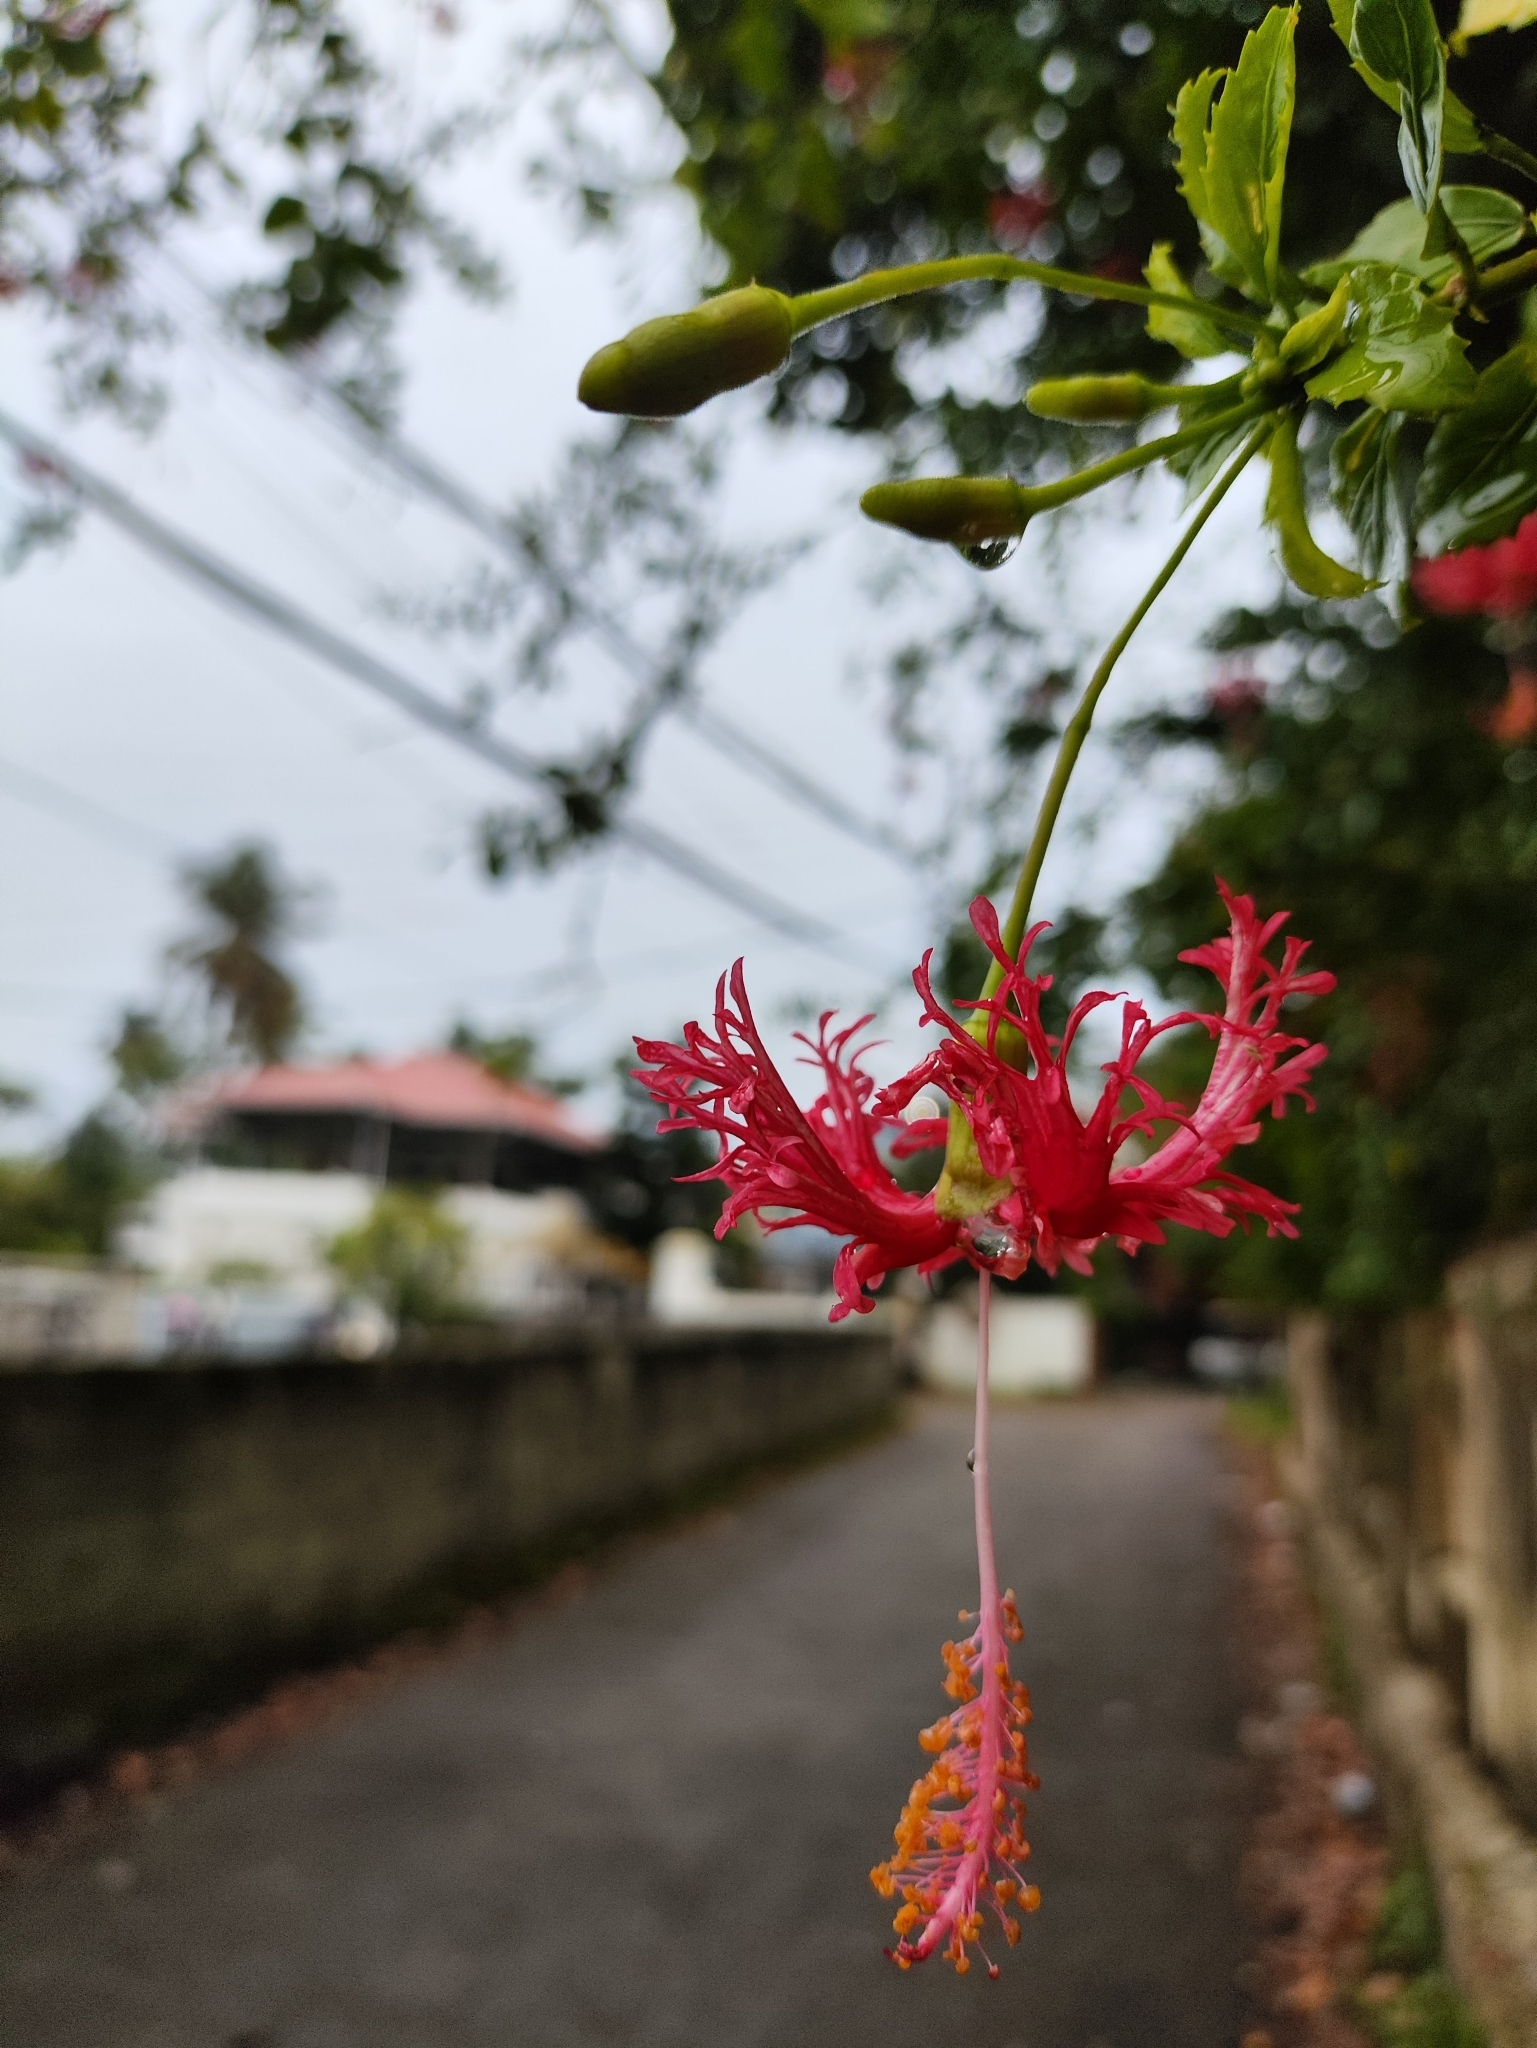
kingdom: Plantae
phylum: Tracheophyta
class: Magnoliopsida
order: Malvales
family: Malvaceae
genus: Hibiscus
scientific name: Hibiscus schizopetalus
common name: Fringed rosemallow
